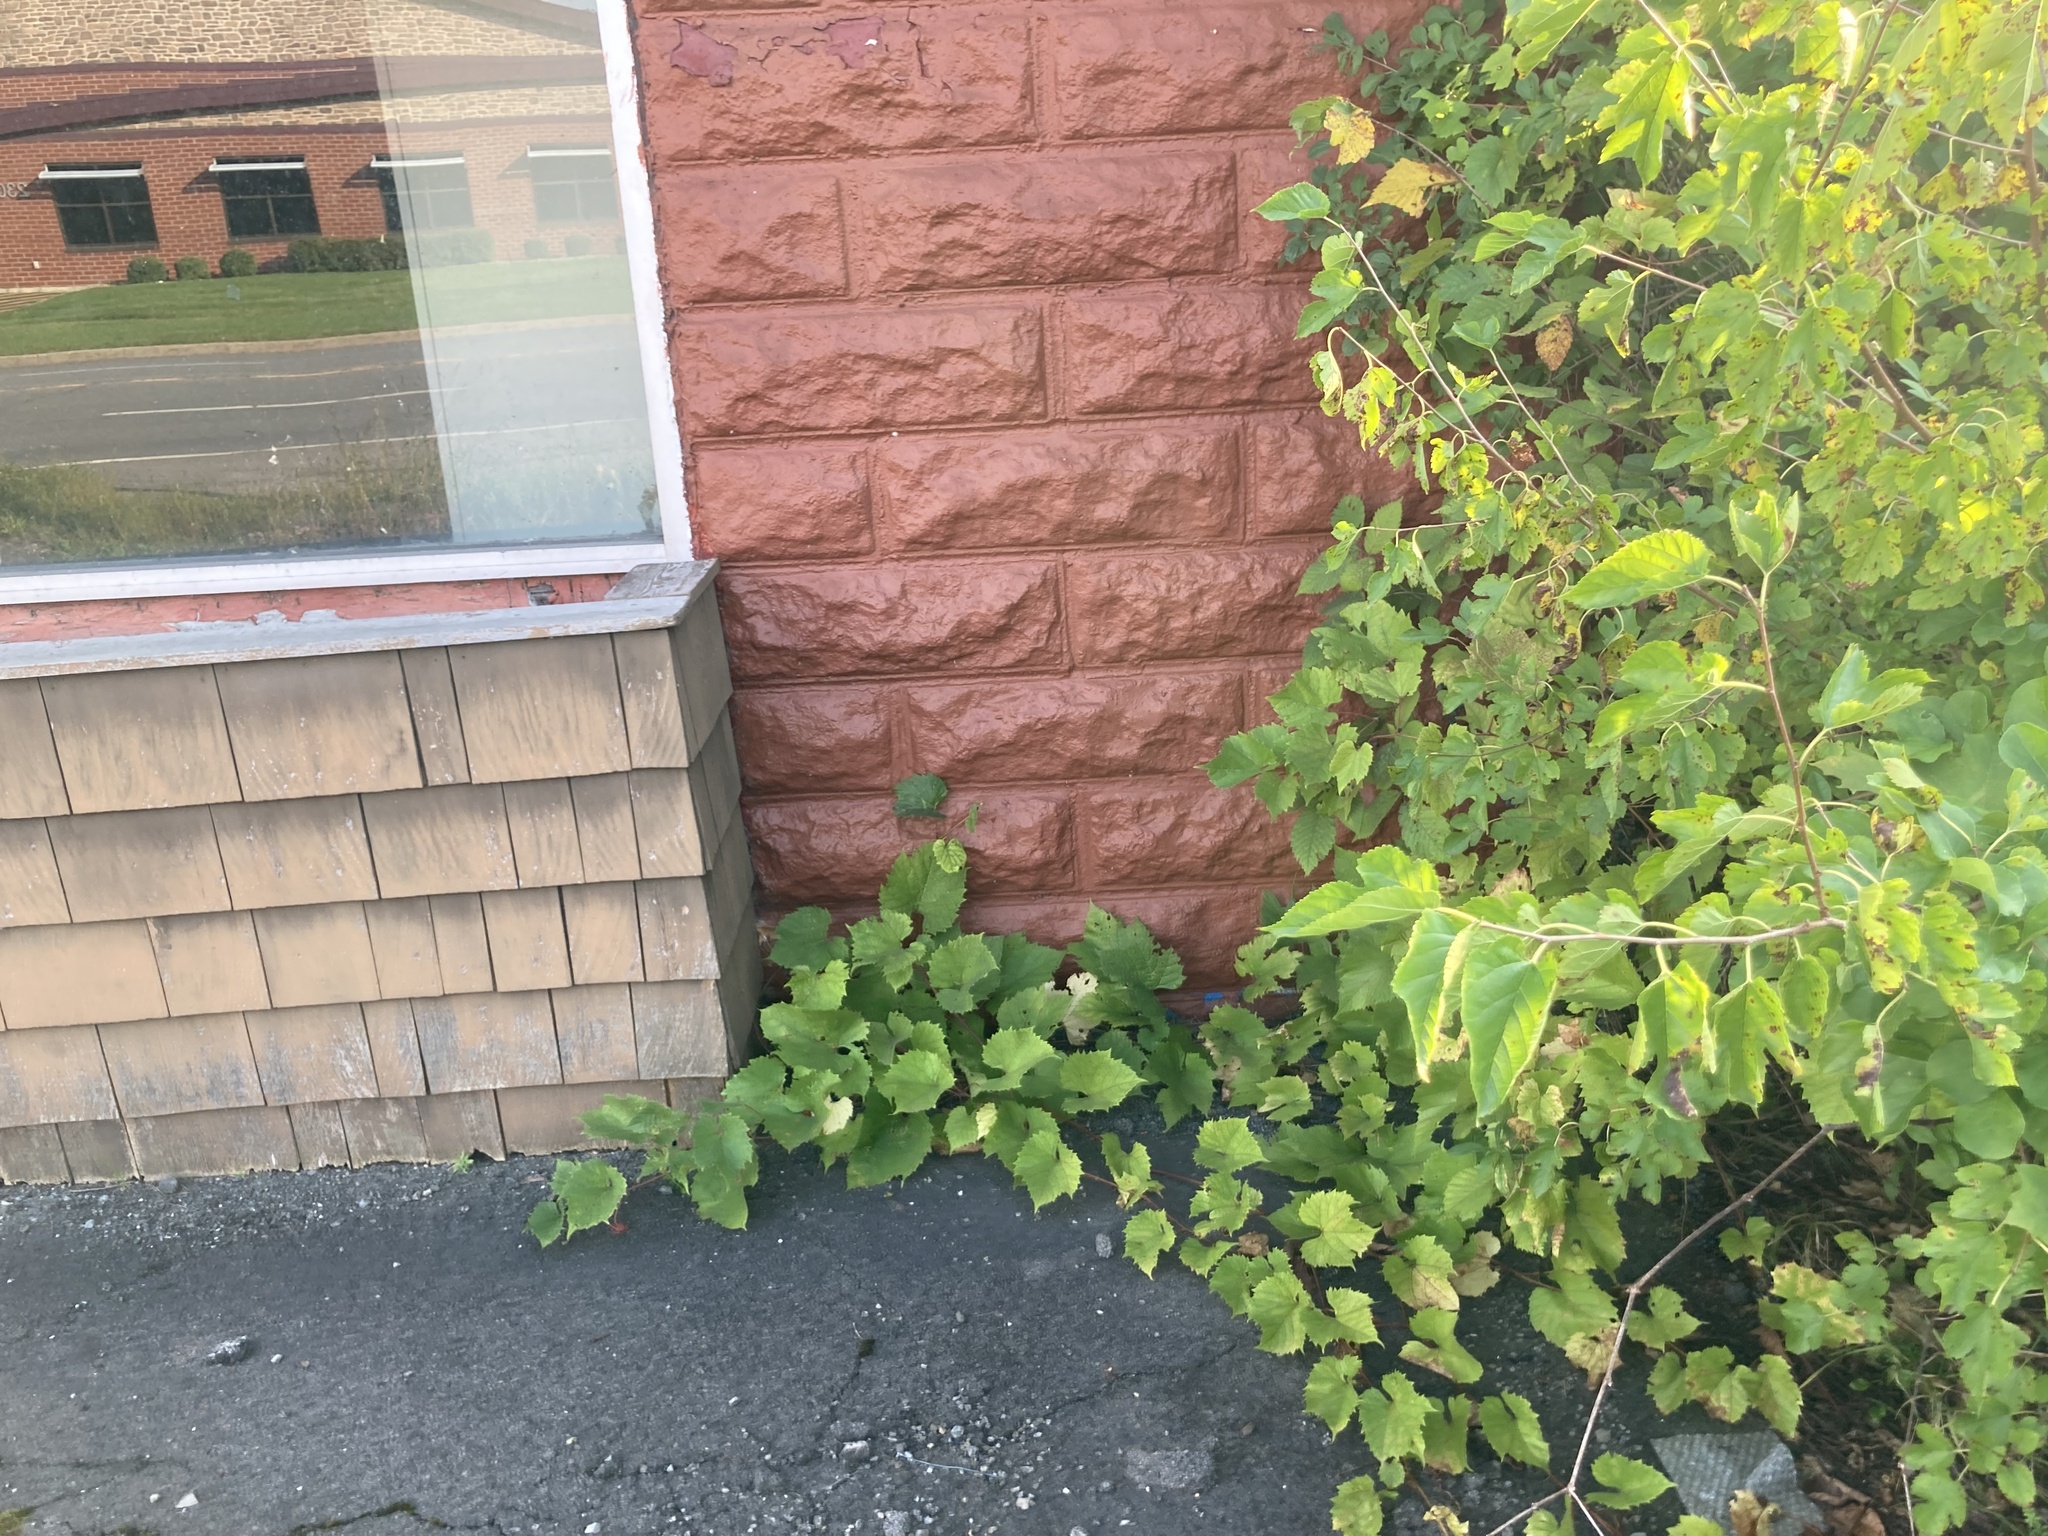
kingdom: Plantae
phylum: Tracheophyta
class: Magnoliopsida
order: Vitales
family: Vitaceae
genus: Vitis
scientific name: Vitis vinifera
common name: Grape-vine
